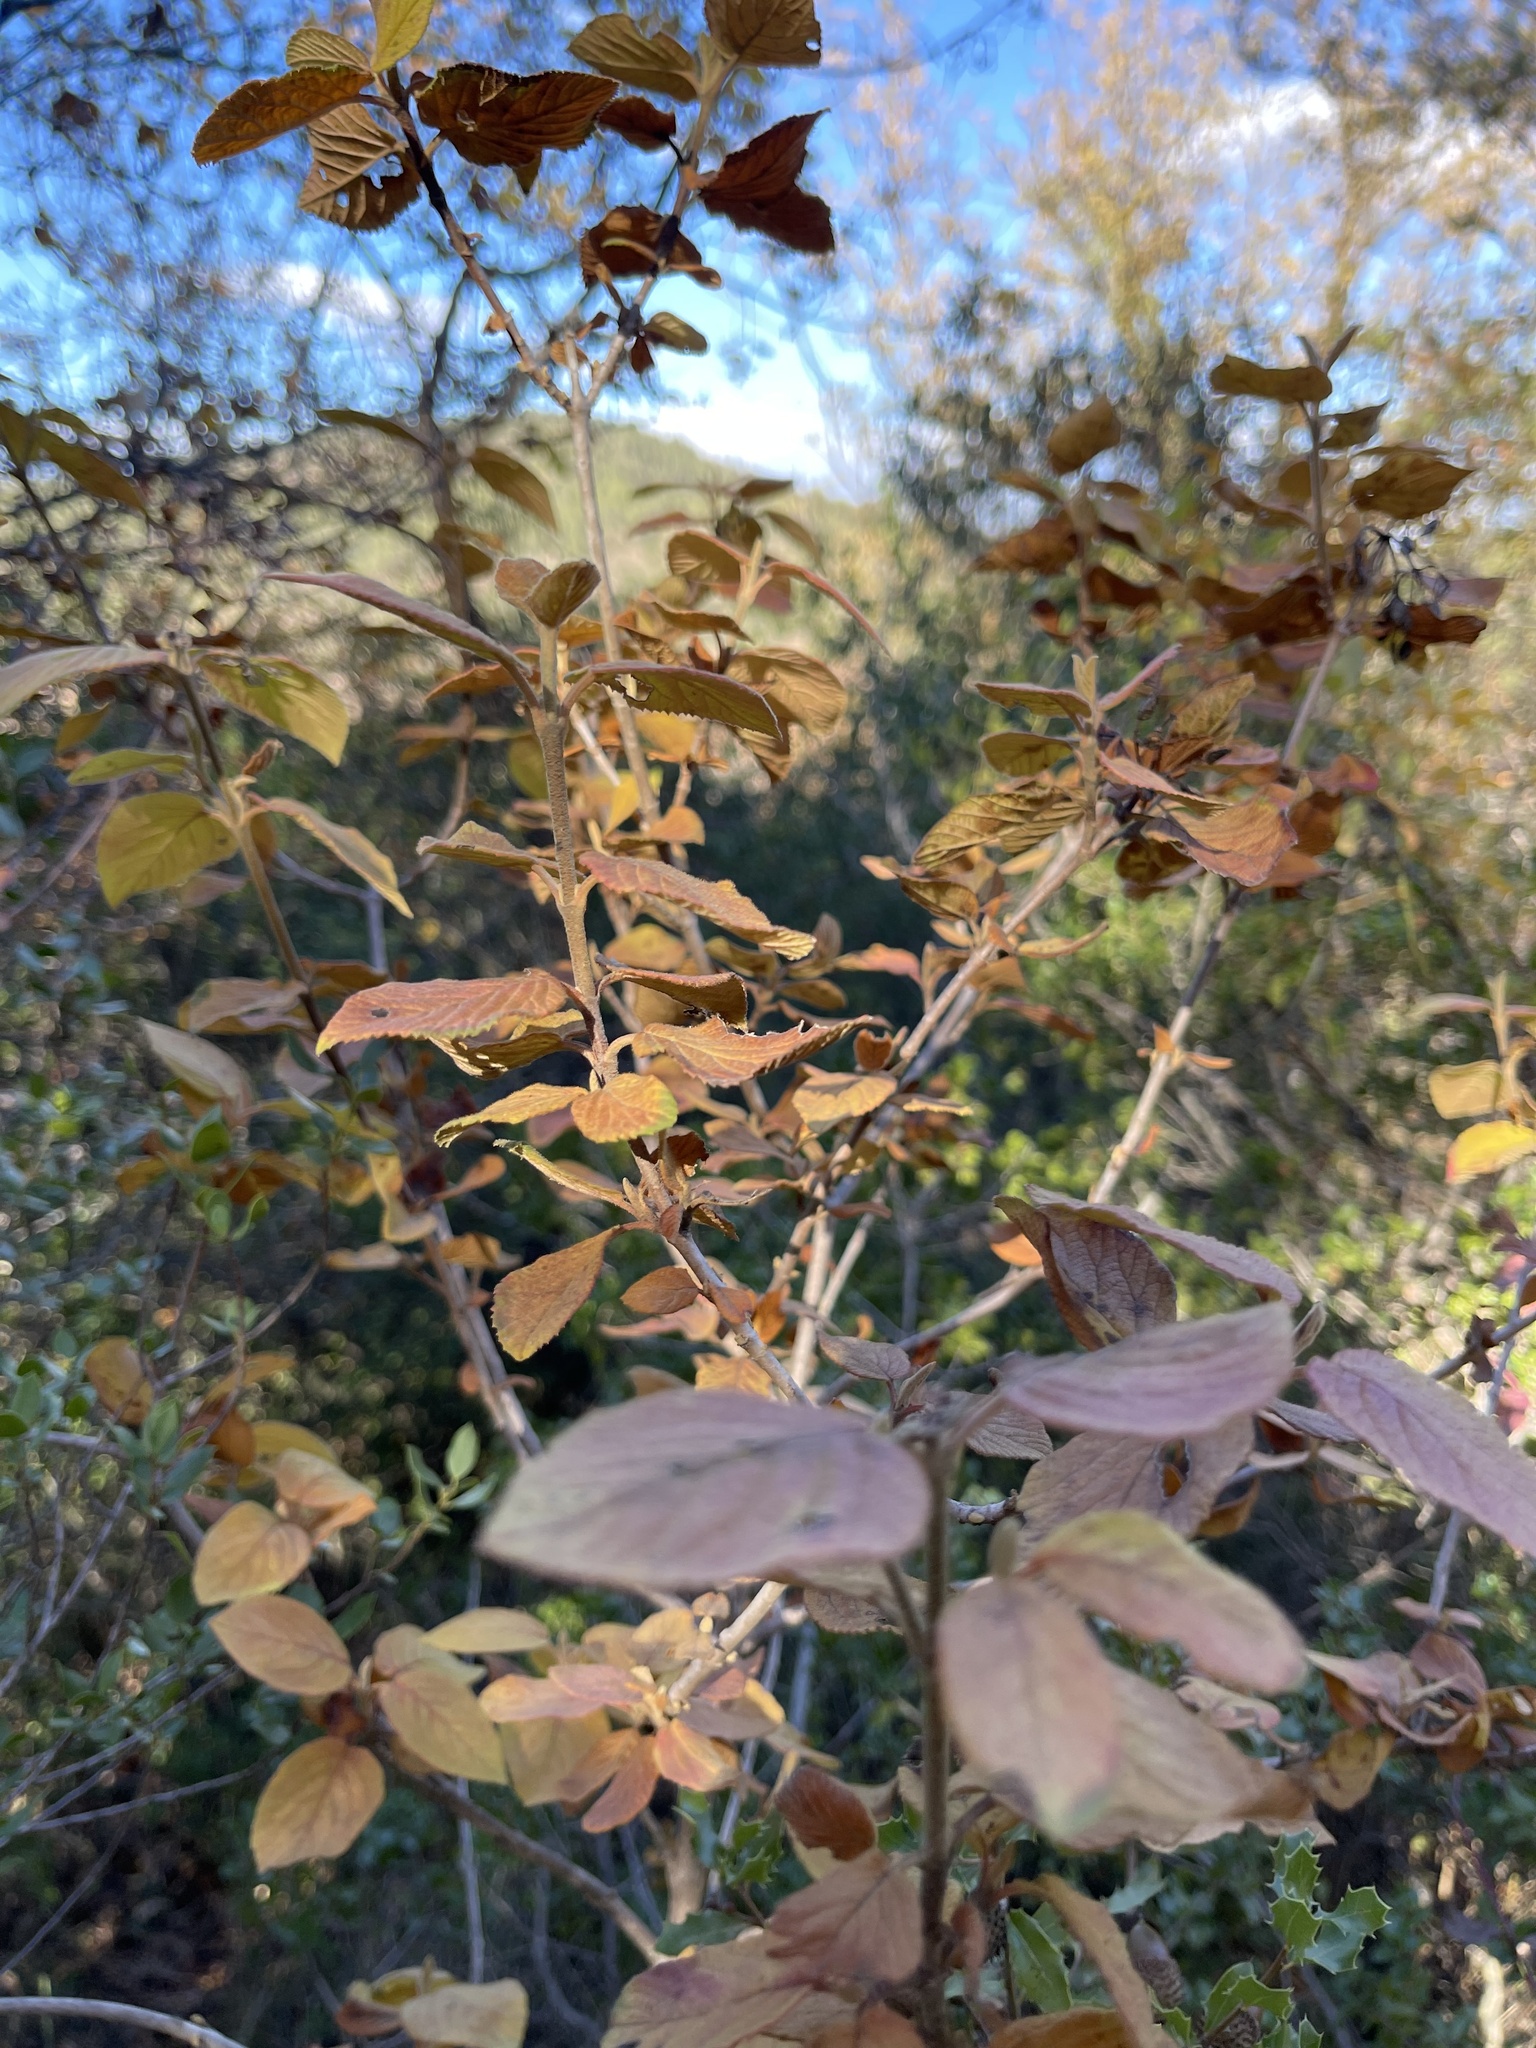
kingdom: Plantae
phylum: Tracheophyta
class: Magnoliopsida
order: Dipsacales
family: Viburnaceae
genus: Viburnum
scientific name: Viburnum lantana
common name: Wayfaring tree
